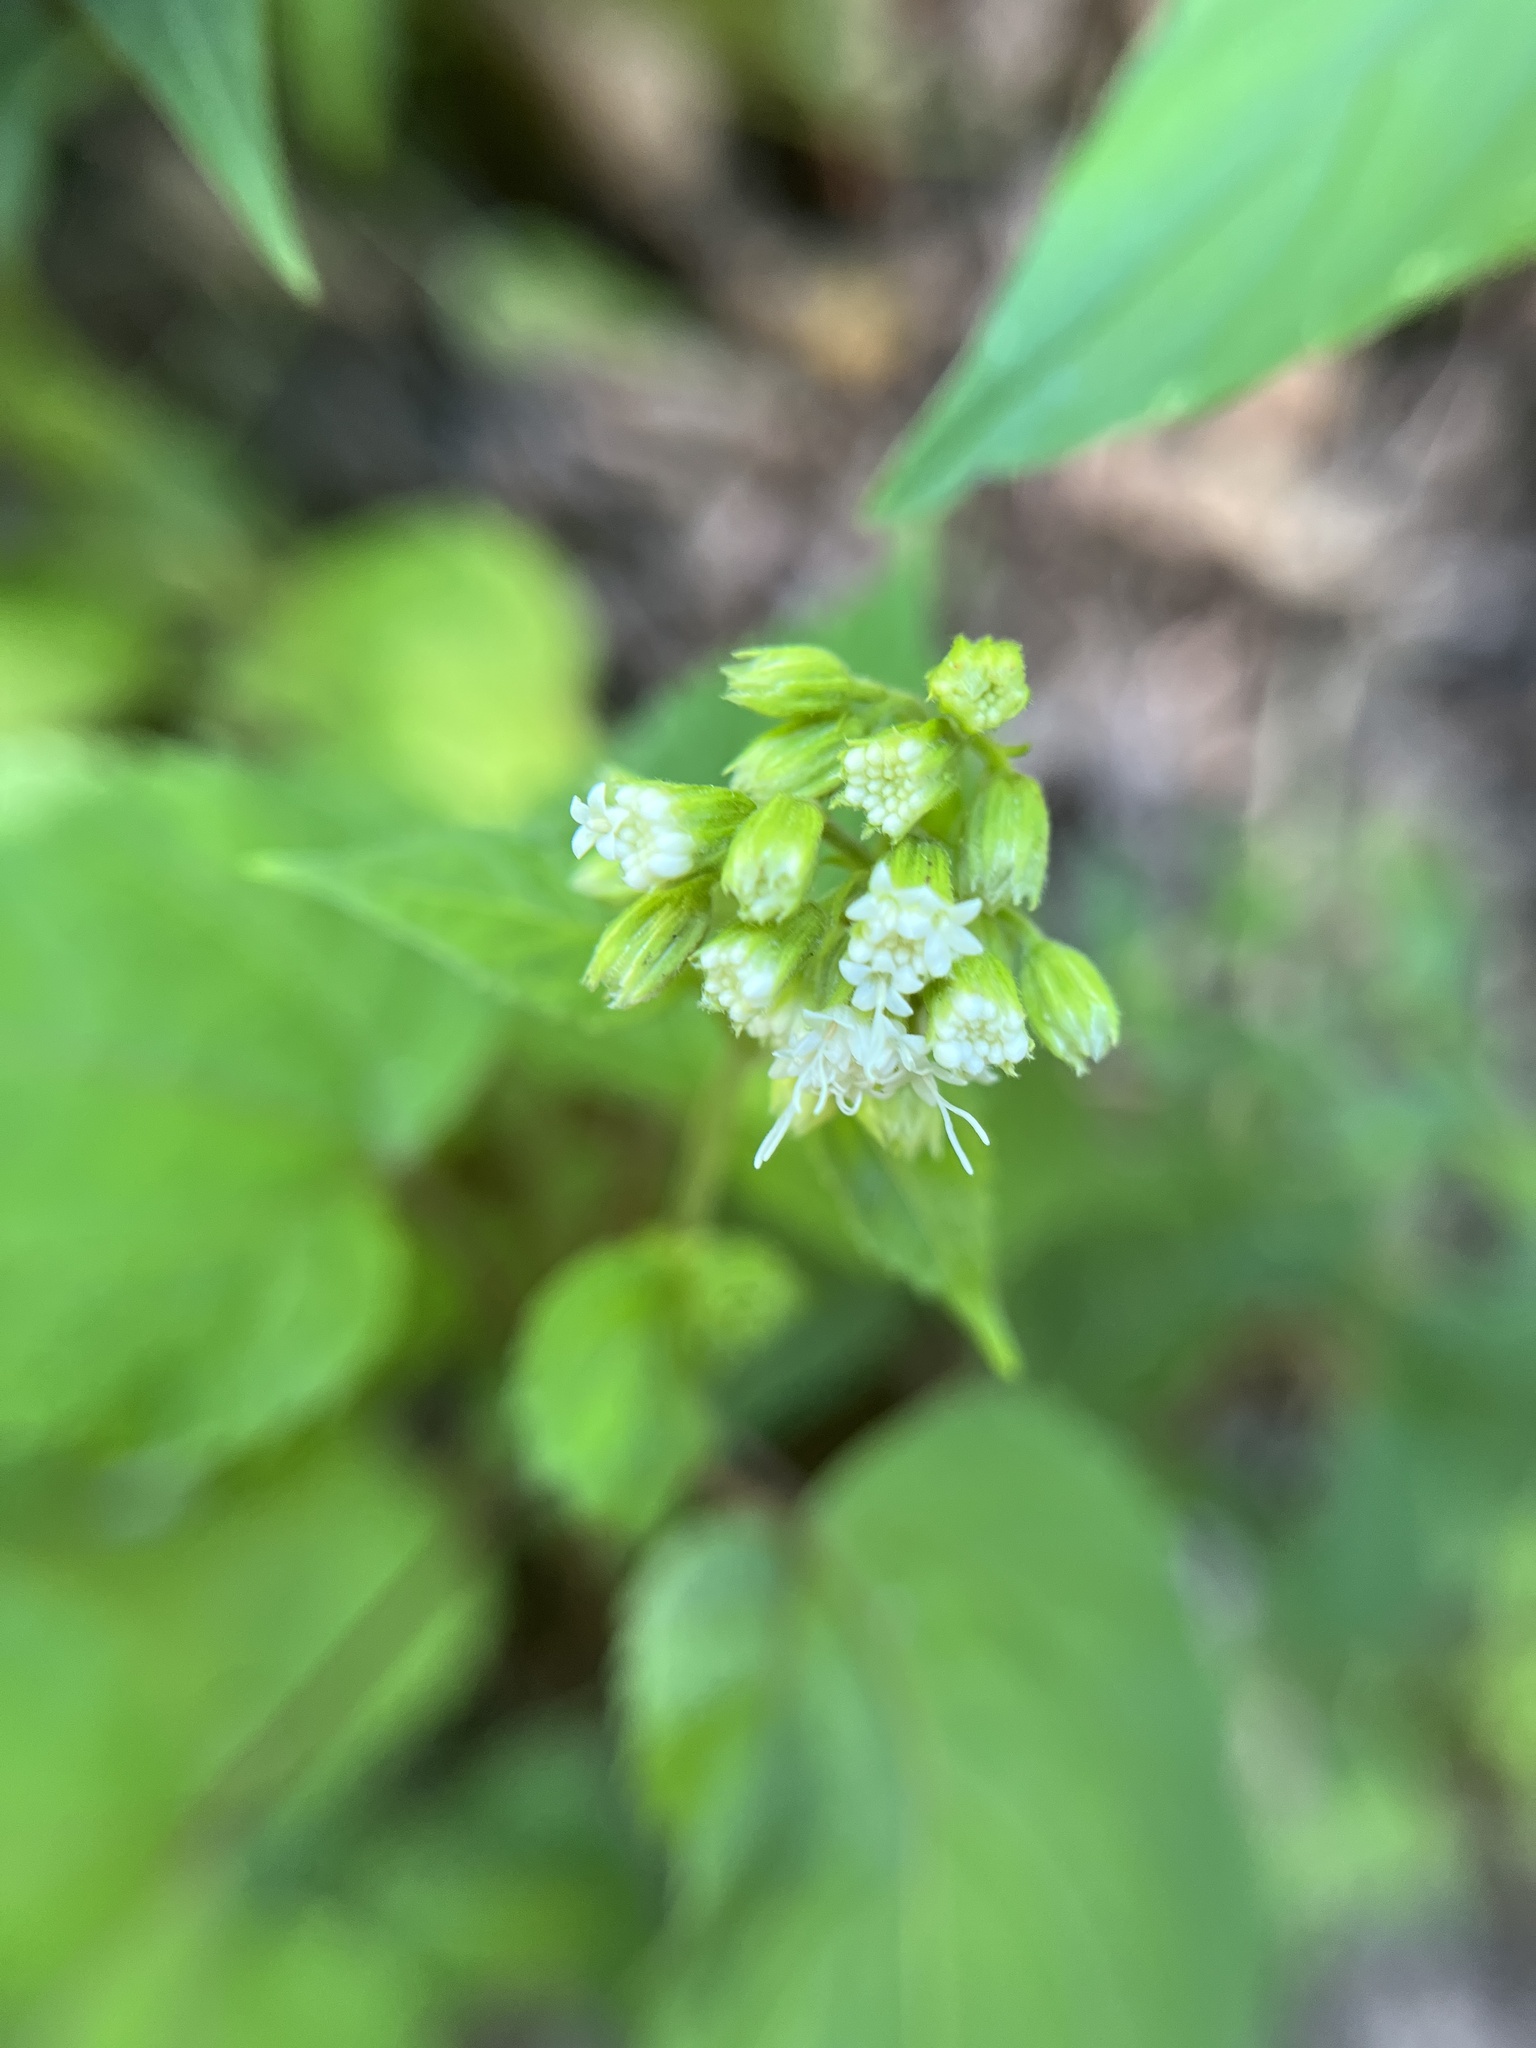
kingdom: Plantae
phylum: Tracheophyta
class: Magnoliopsida
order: Asterales
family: Asteraceae
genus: Ageratina
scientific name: Ageratina altissima
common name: White snakeroot
